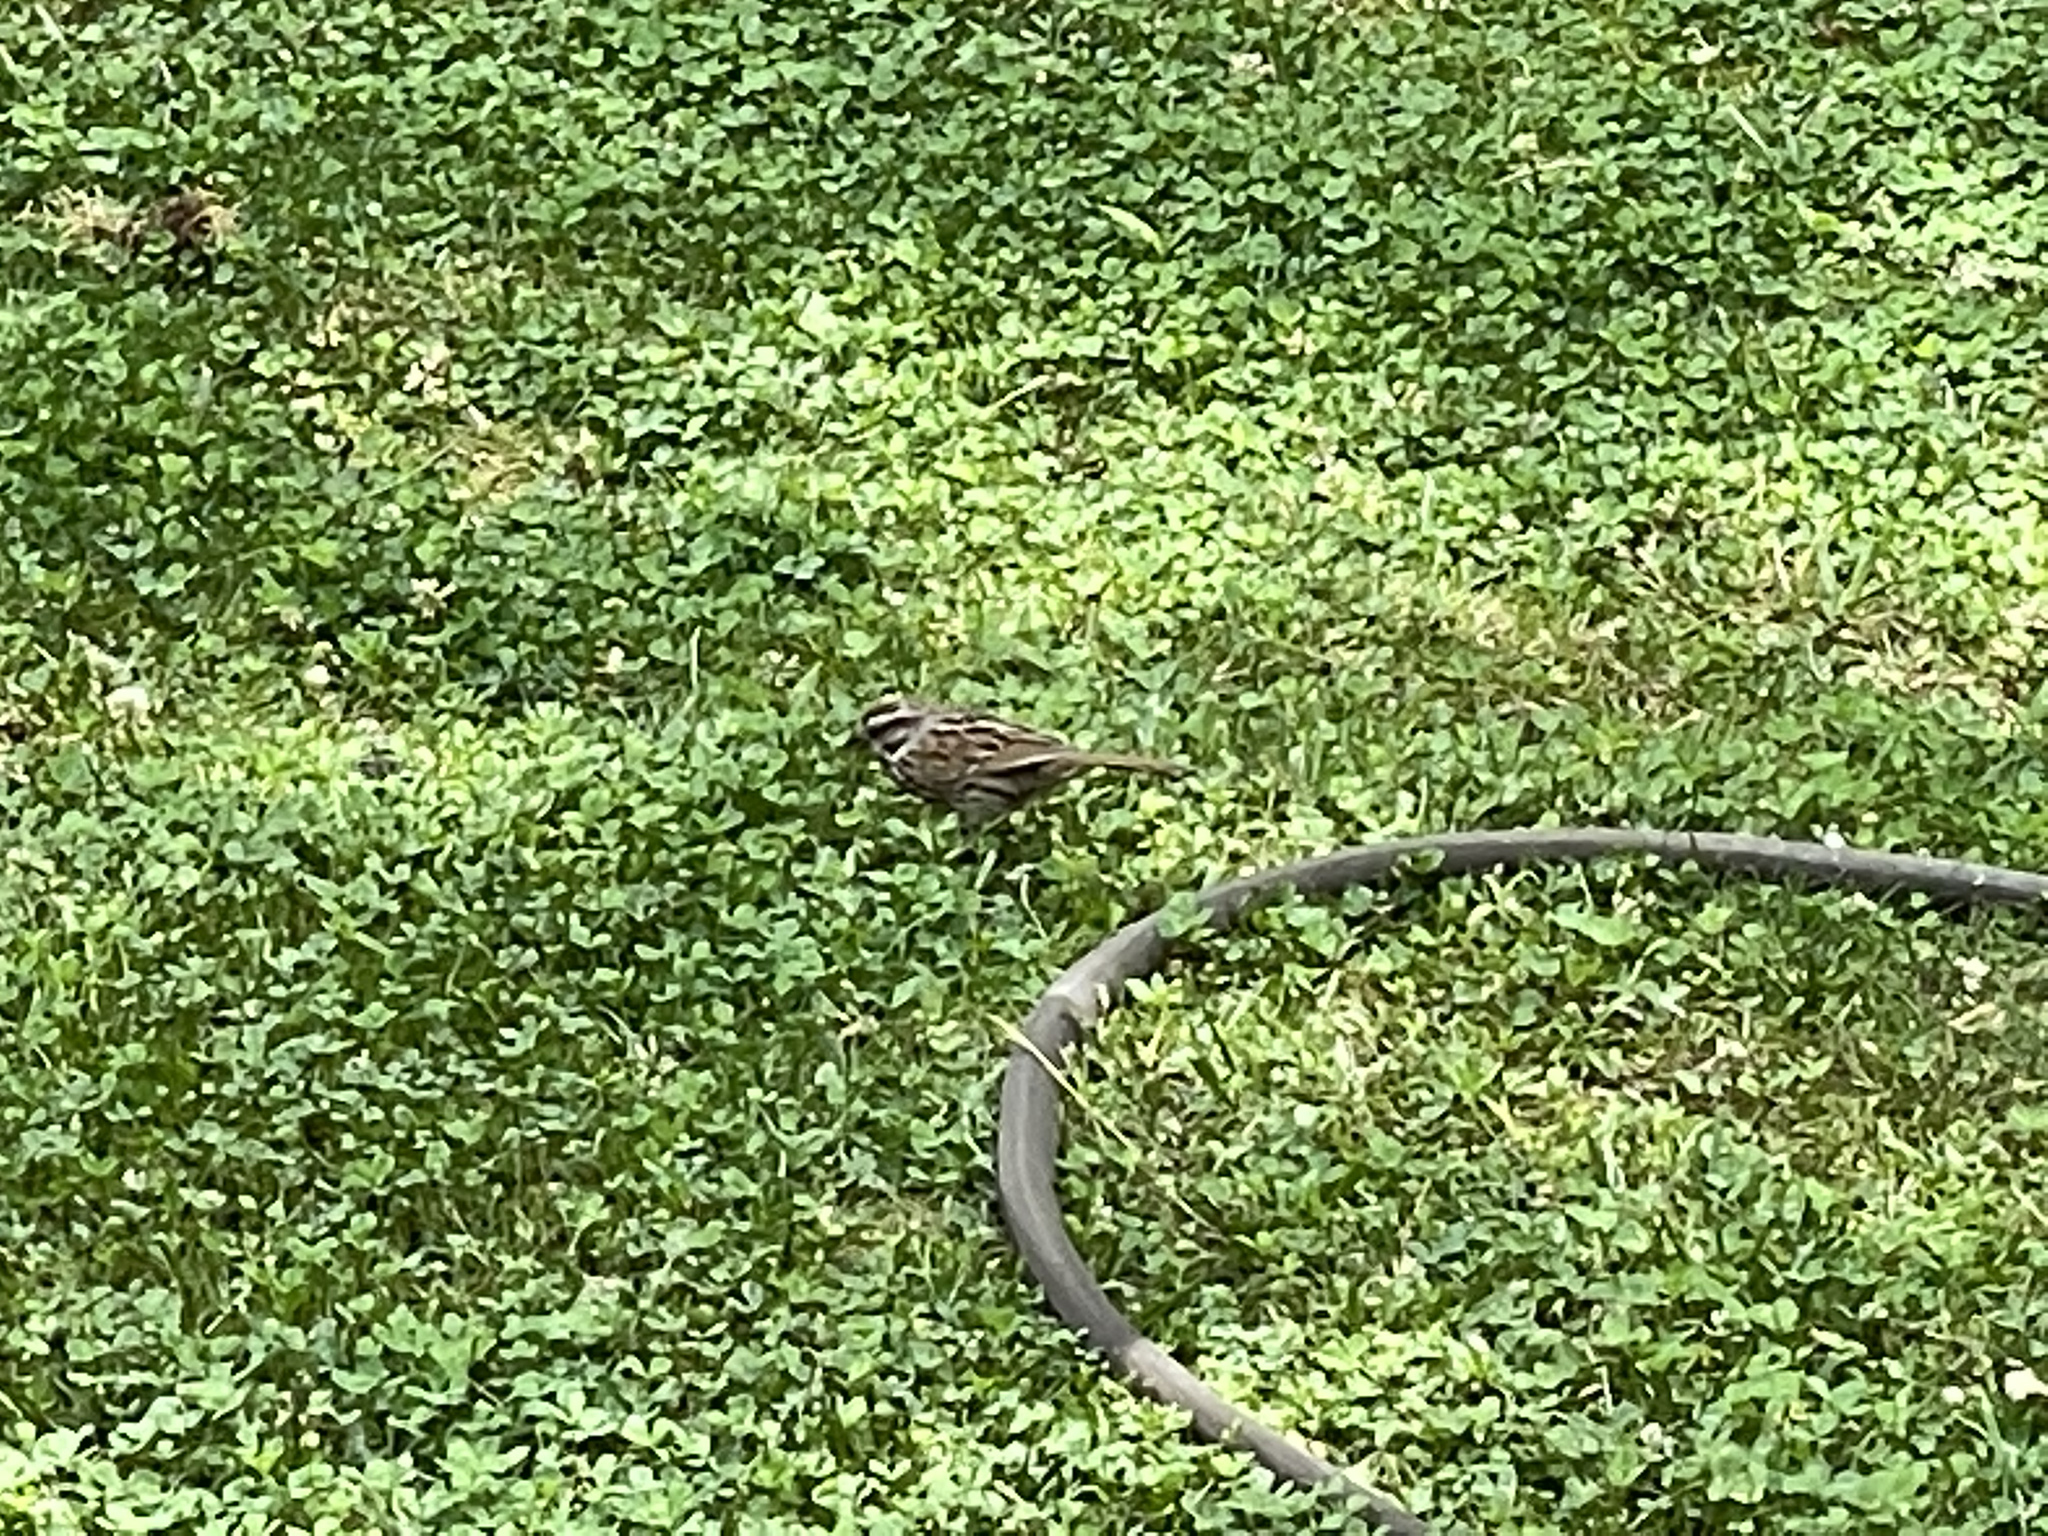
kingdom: Animalia
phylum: Chordata
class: Aves
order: Passeriformes
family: Passerellidae
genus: Melospiza
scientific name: Melospiza melodia
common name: Song sparrow
